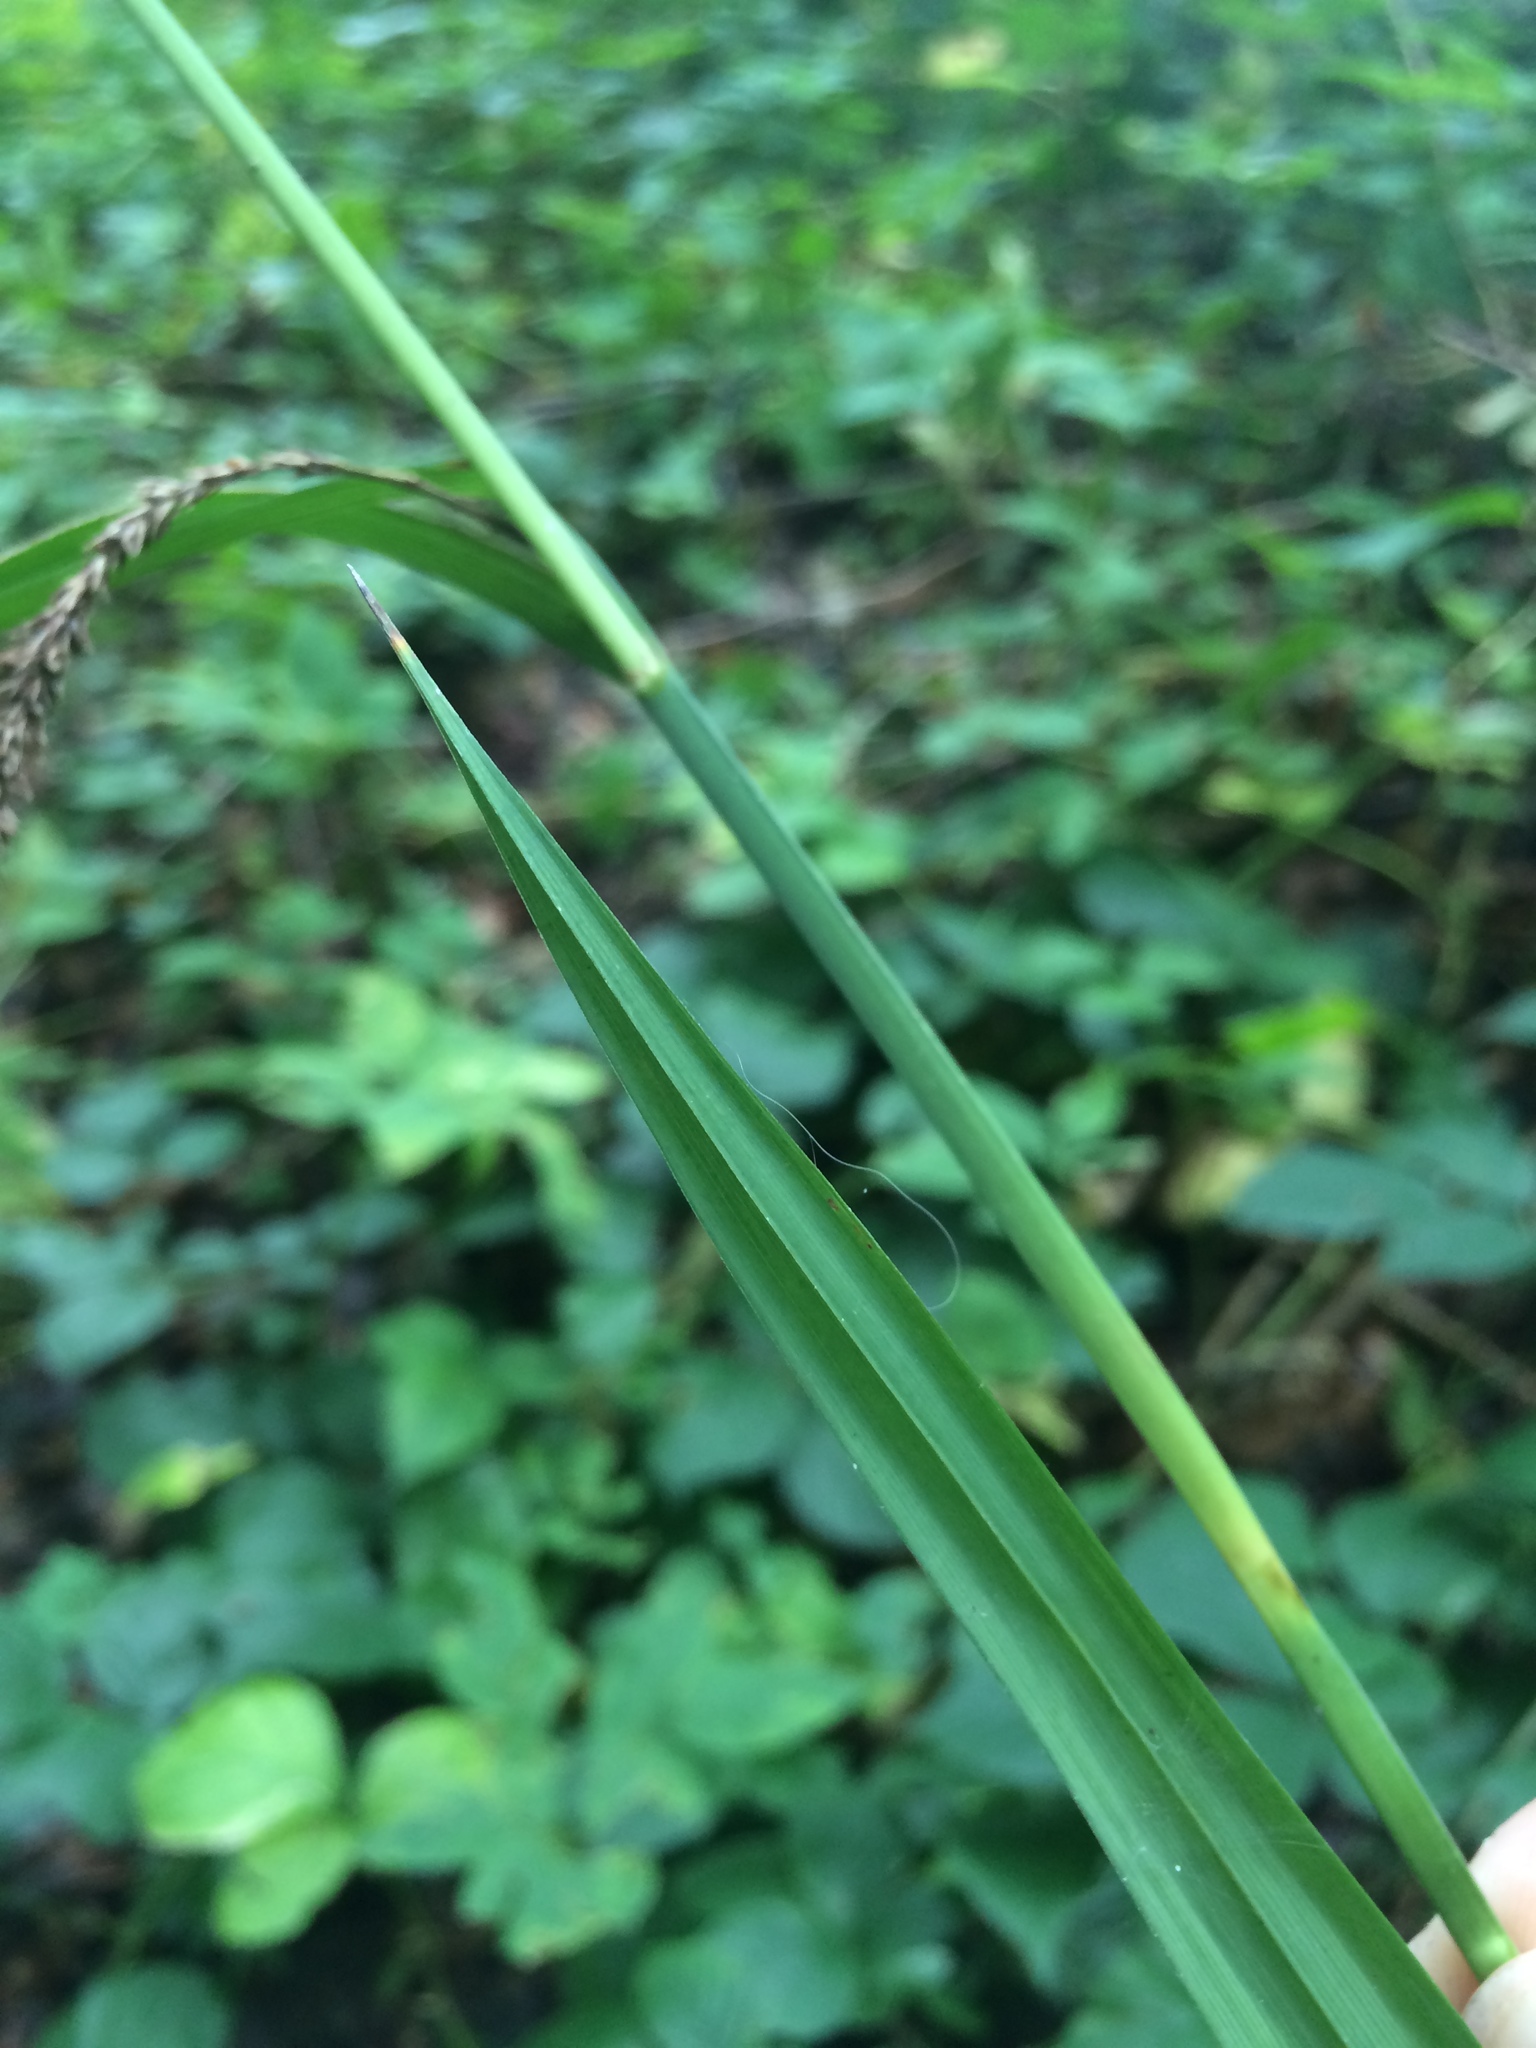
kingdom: Plantae
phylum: Tracheophyta
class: Liliopsida
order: Poales
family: Cyperaceae
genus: Carex
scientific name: Carex pendula
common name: Pendulous sedge
